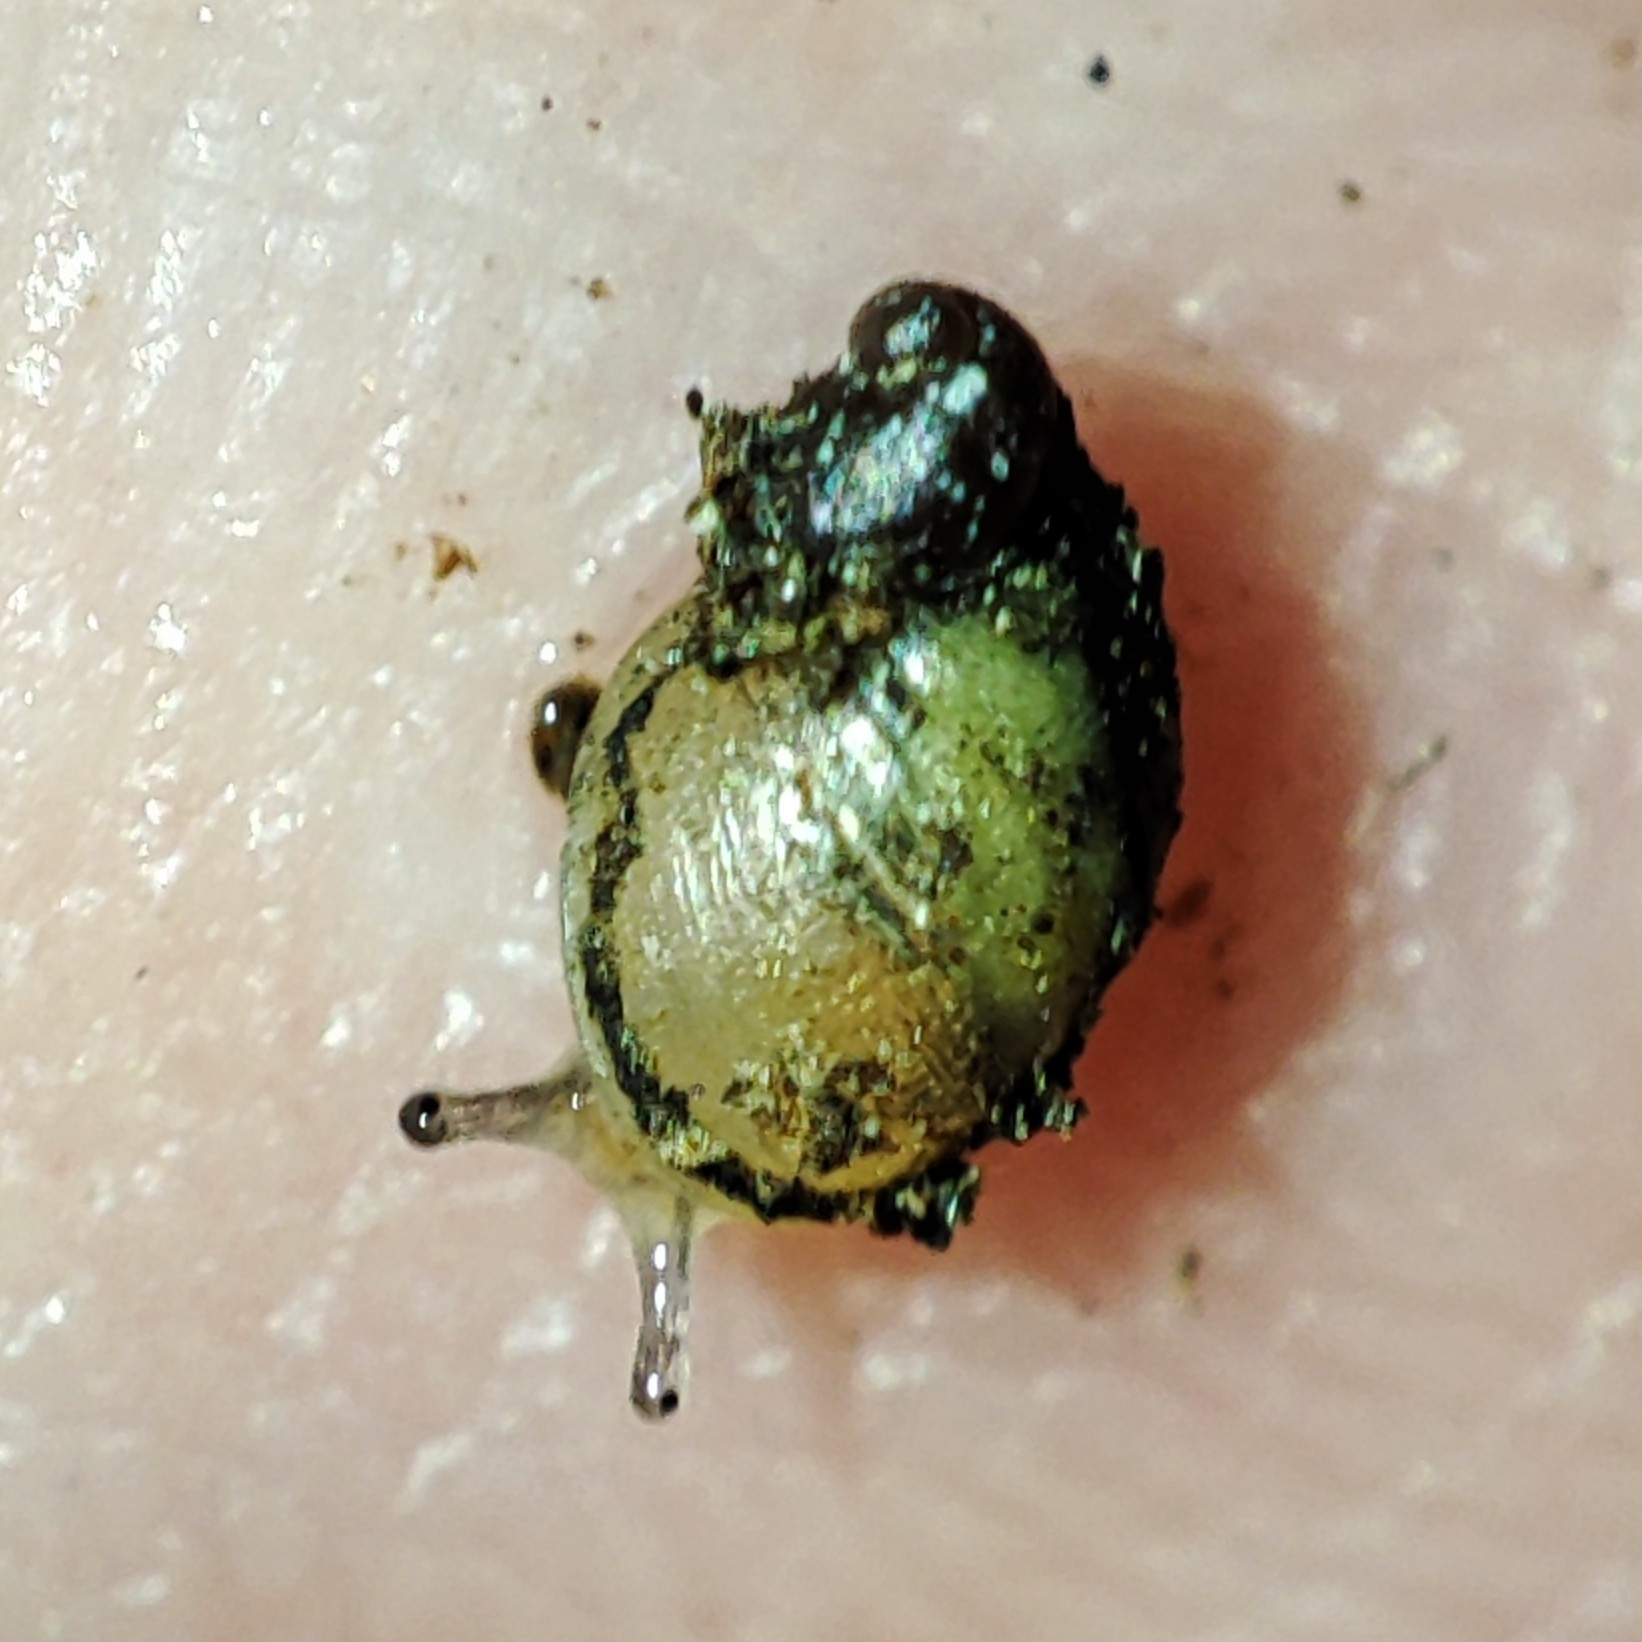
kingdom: Animalia
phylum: Mollusca
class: Gastropoda
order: Stylommatophora
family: Succineidae
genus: Succinella
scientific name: Succinella oblonga
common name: Small amber snail
